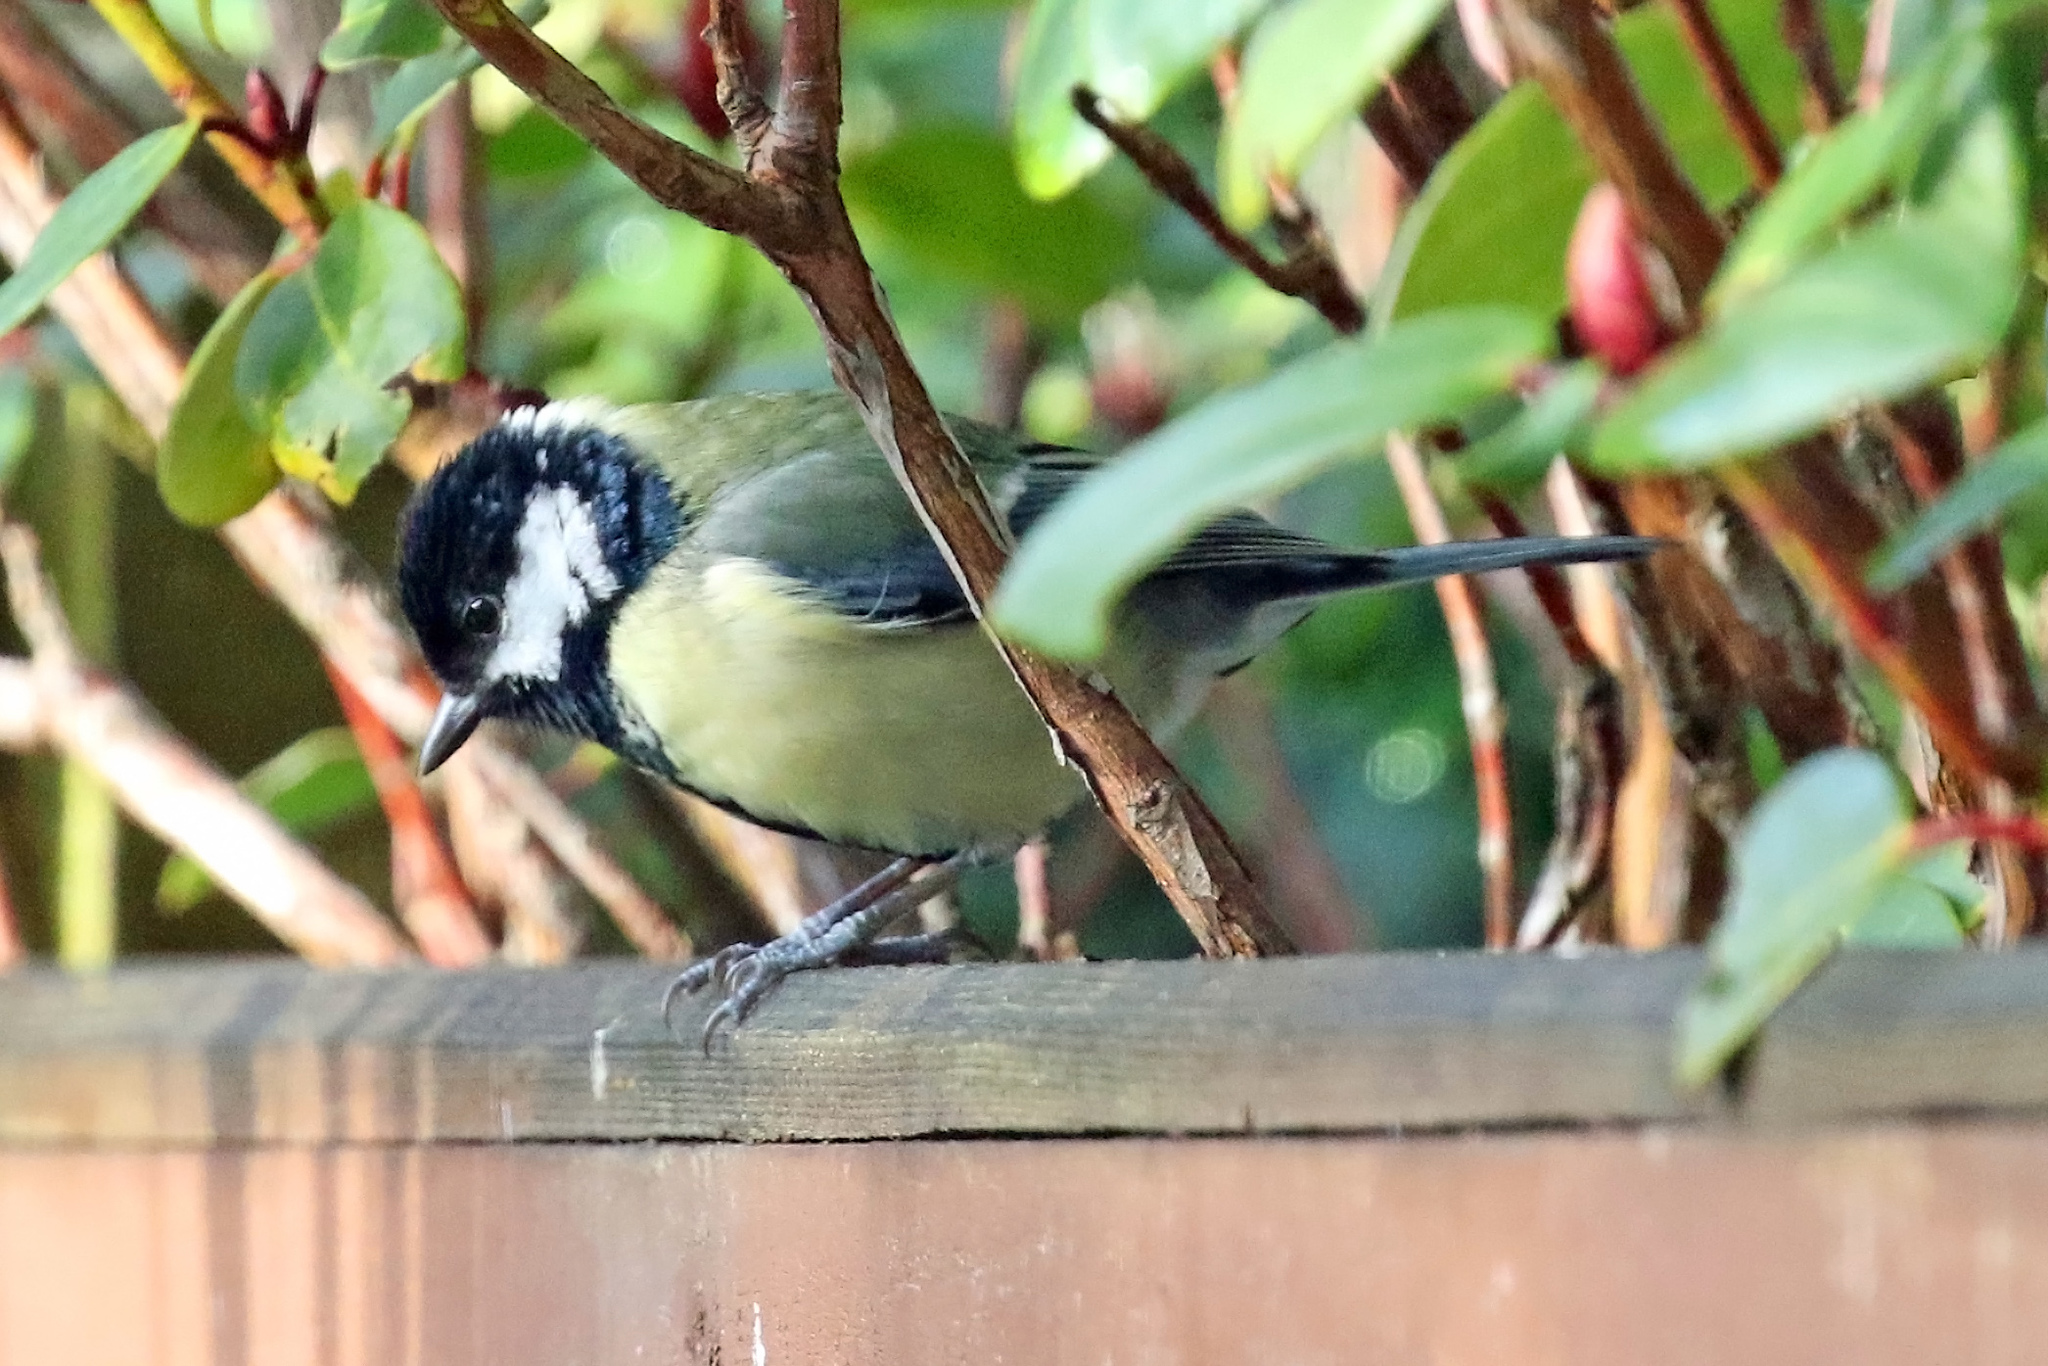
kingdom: Animalia
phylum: Chordata
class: Aves
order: Passeriformes
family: Paridae
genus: Parus
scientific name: Parus major
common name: Great tit
